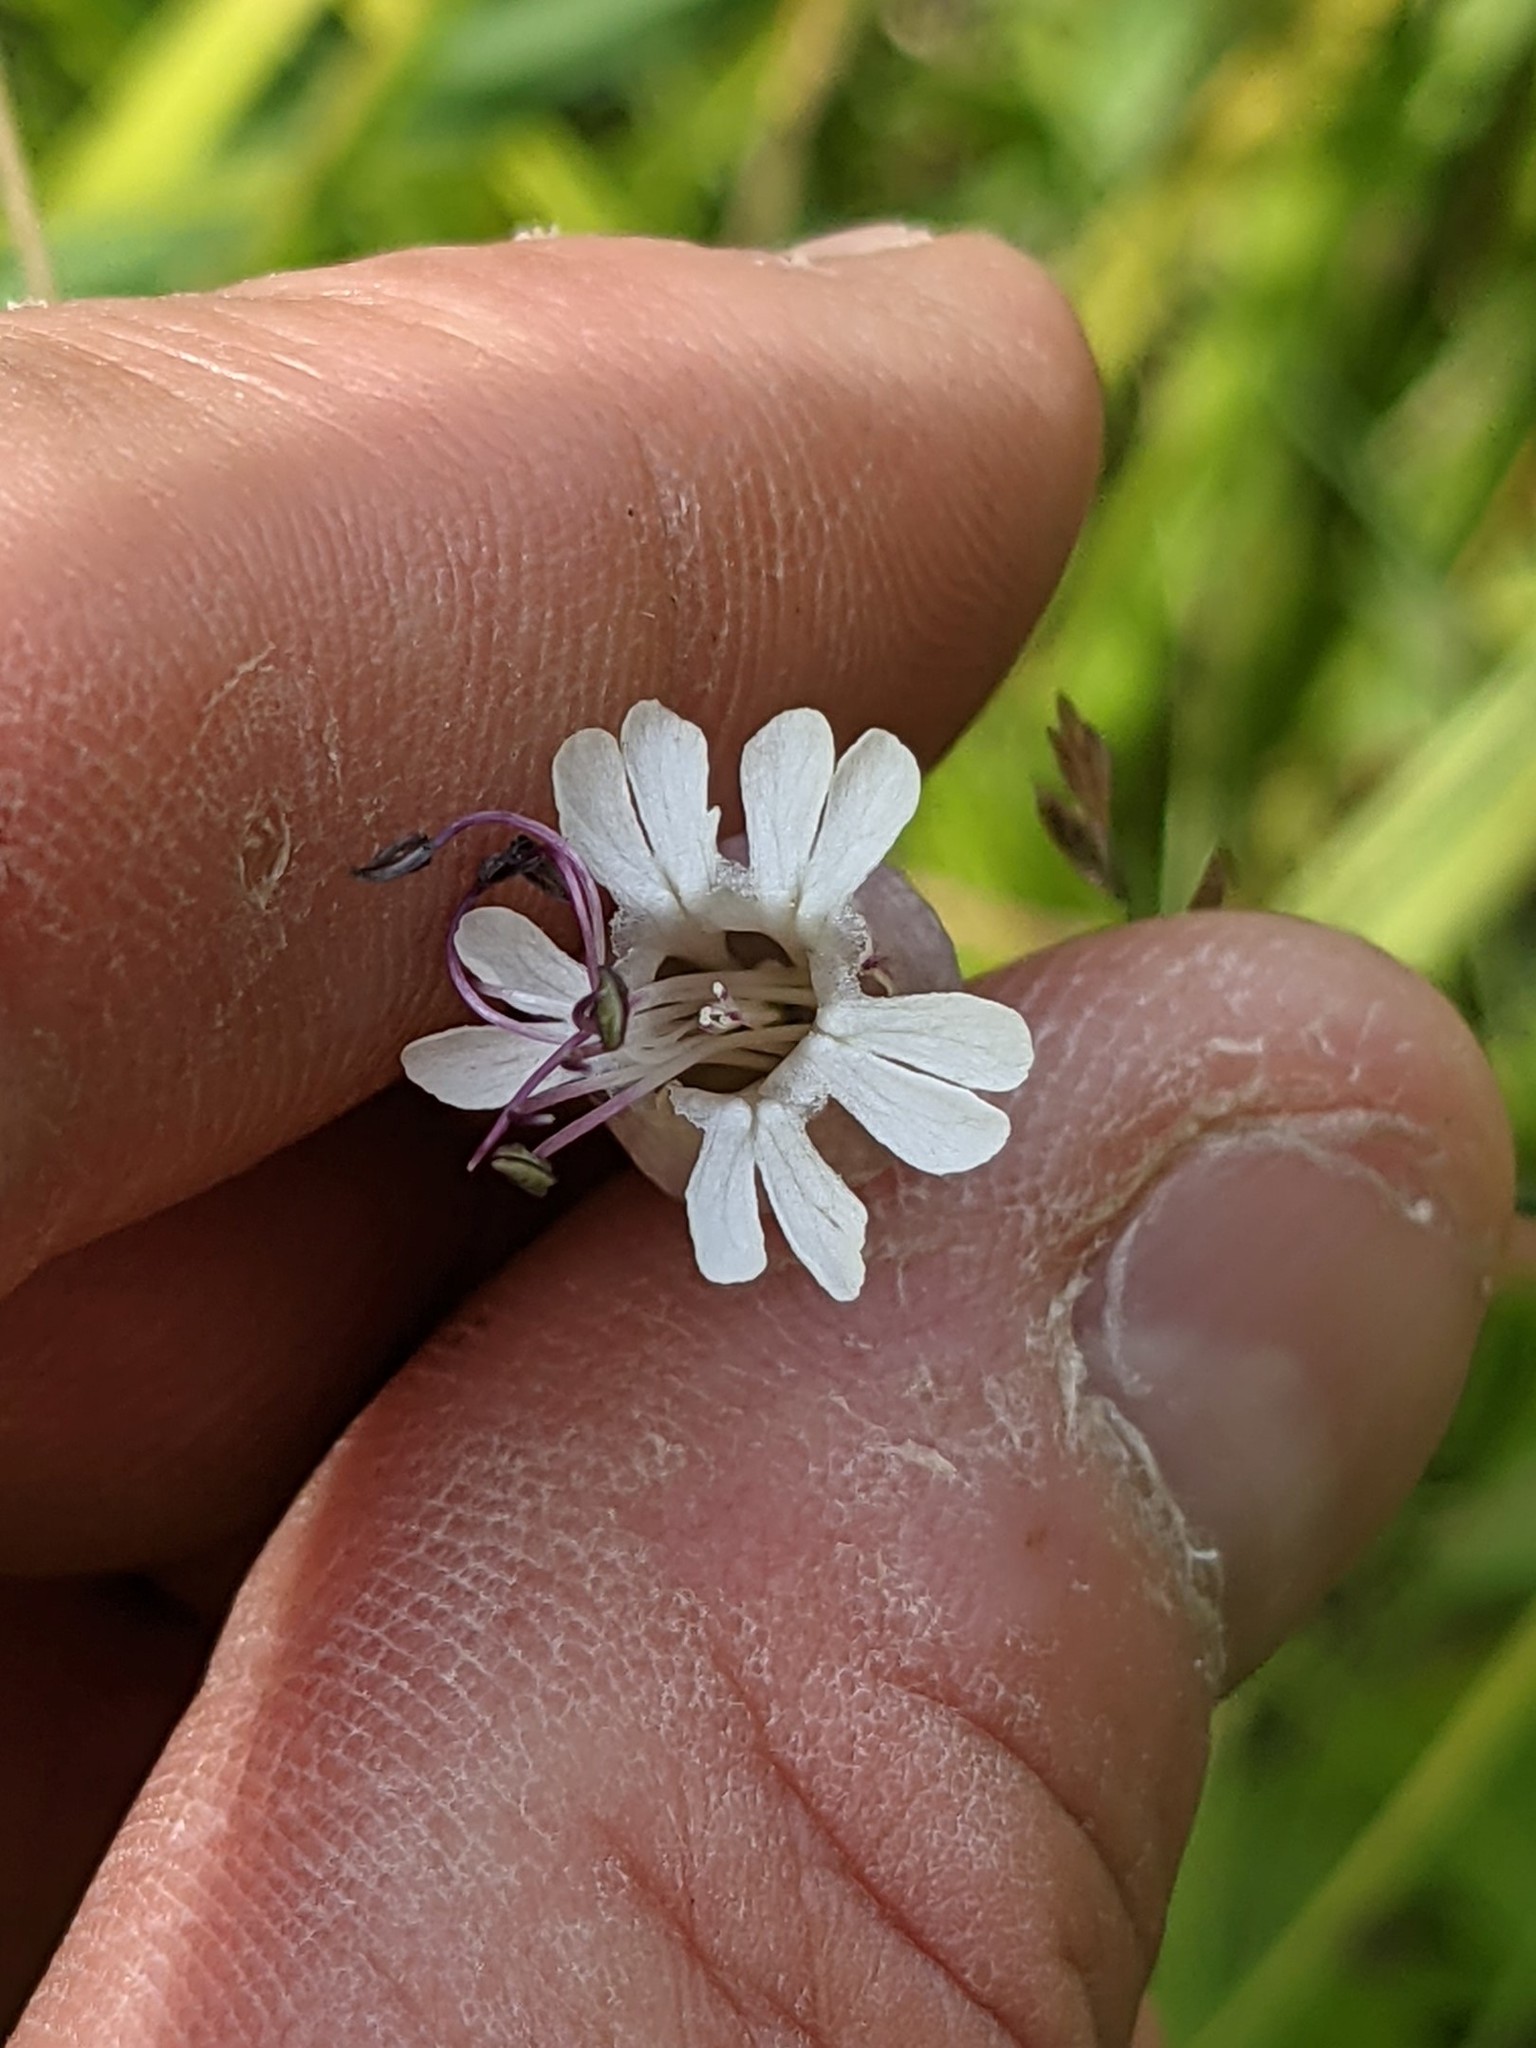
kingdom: Plantae
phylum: Tracheophyta
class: Magnoliopsida
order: Caryophyllales
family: Caryophyllaceae
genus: Silene
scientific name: Silene vulgaris
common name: Bladder campion
